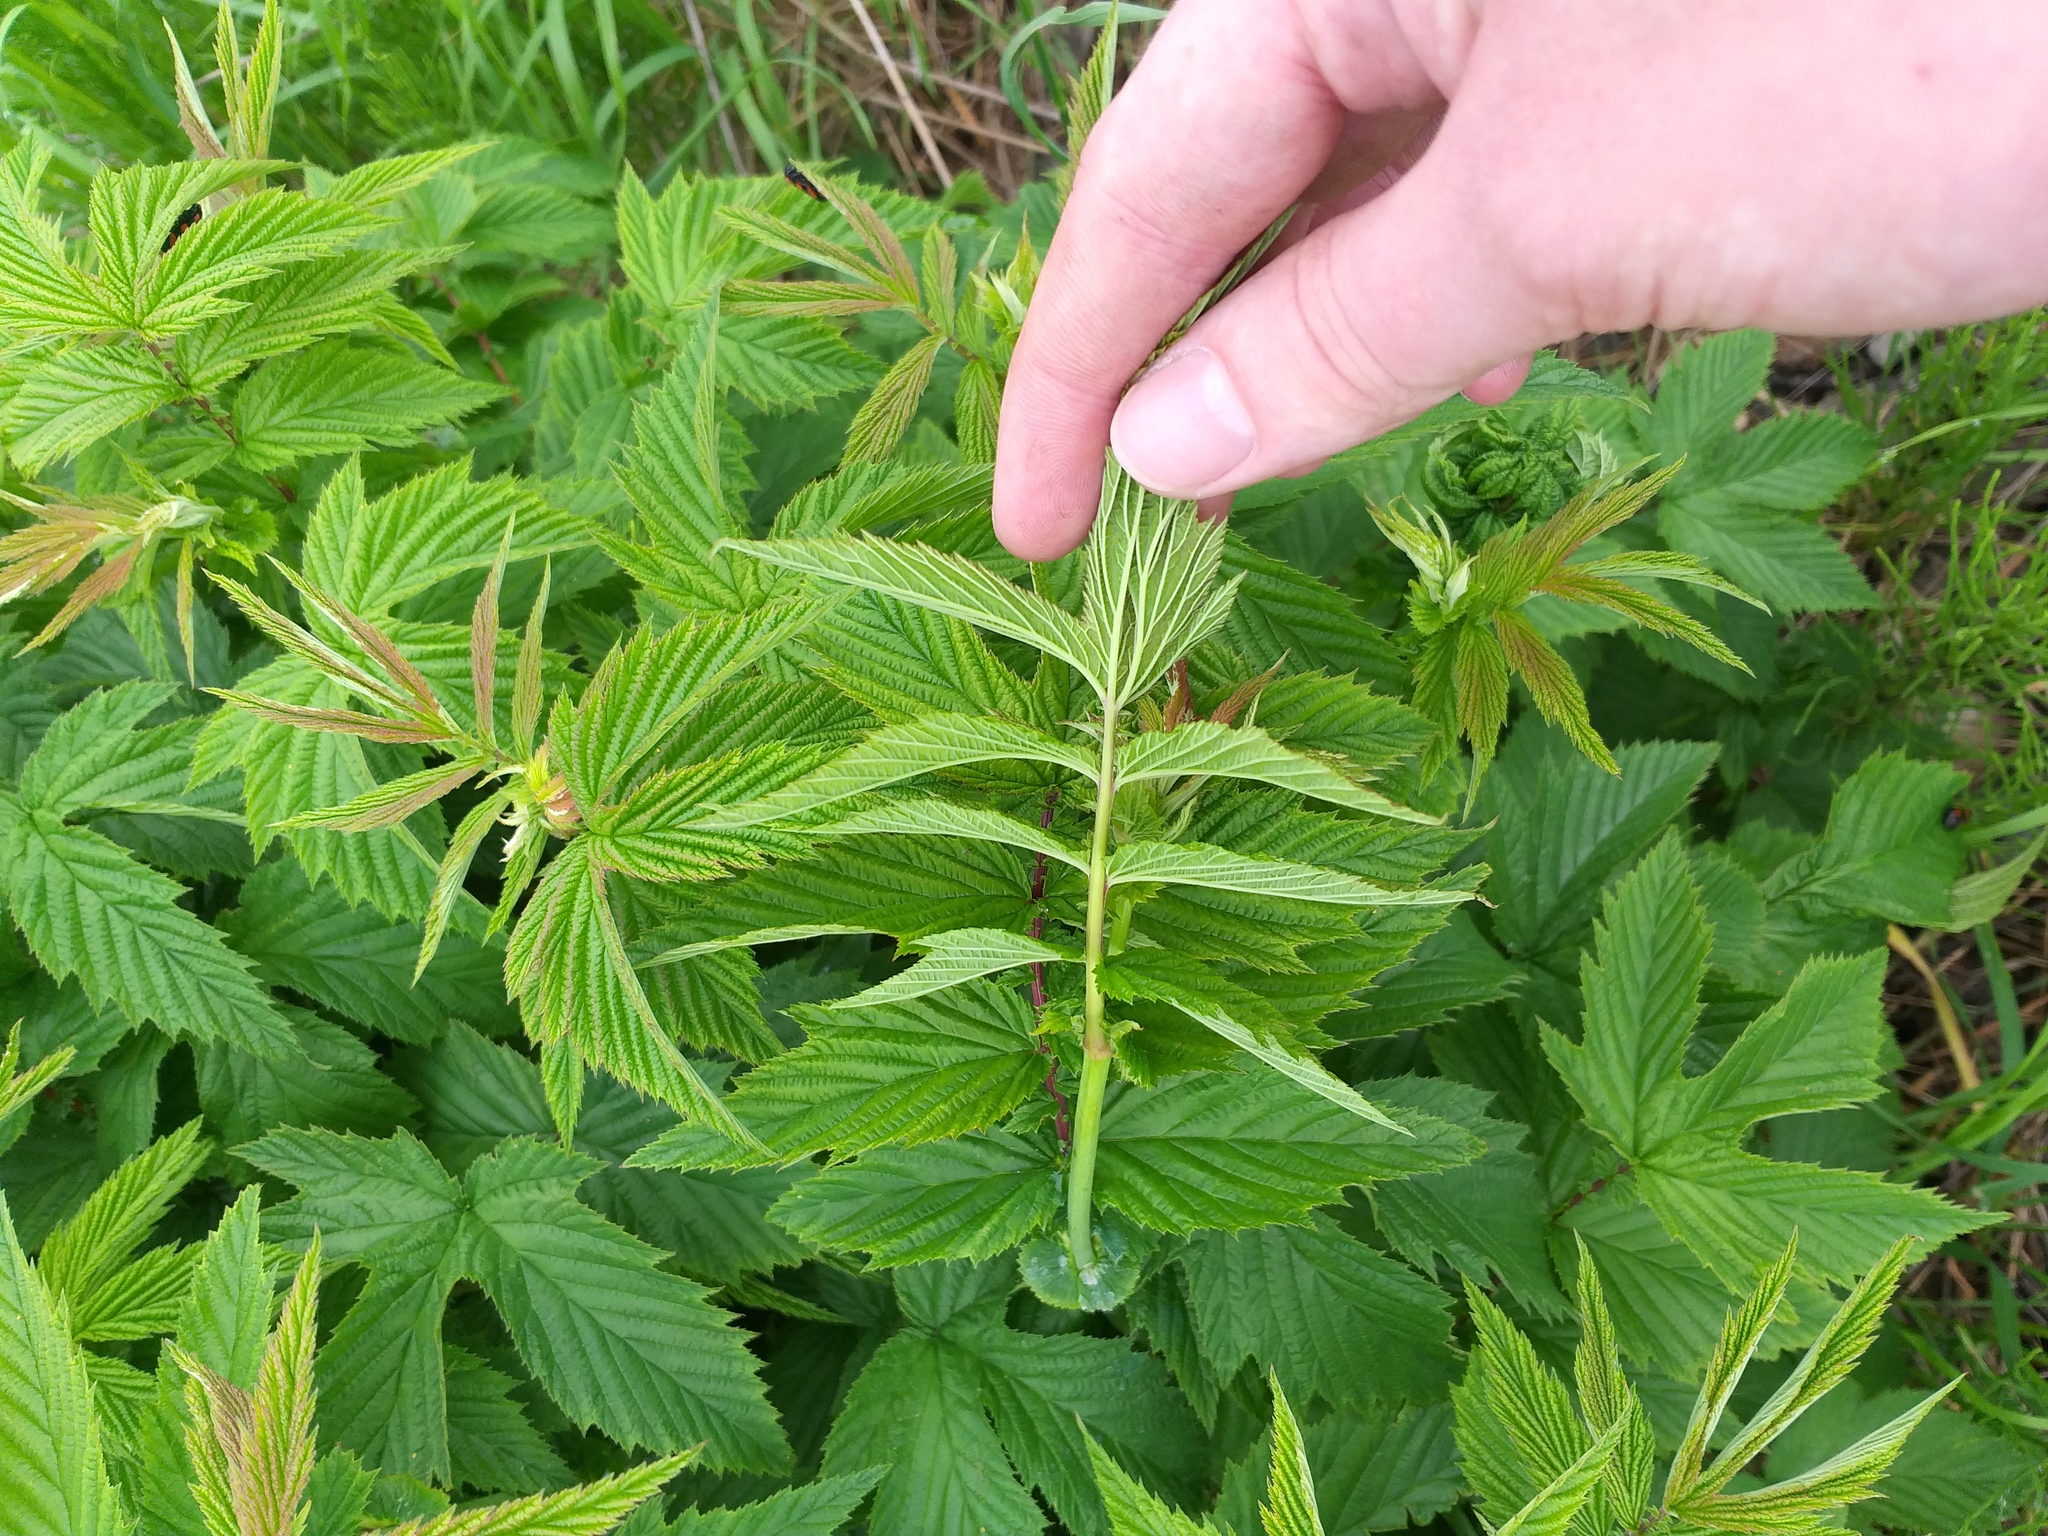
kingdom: Plantae
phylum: Tracheophyta
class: Magnoliopsida
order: Rosales
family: Rosaceae
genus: Filipendula
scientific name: Filipendula ulmaria
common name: Meadowsweet
